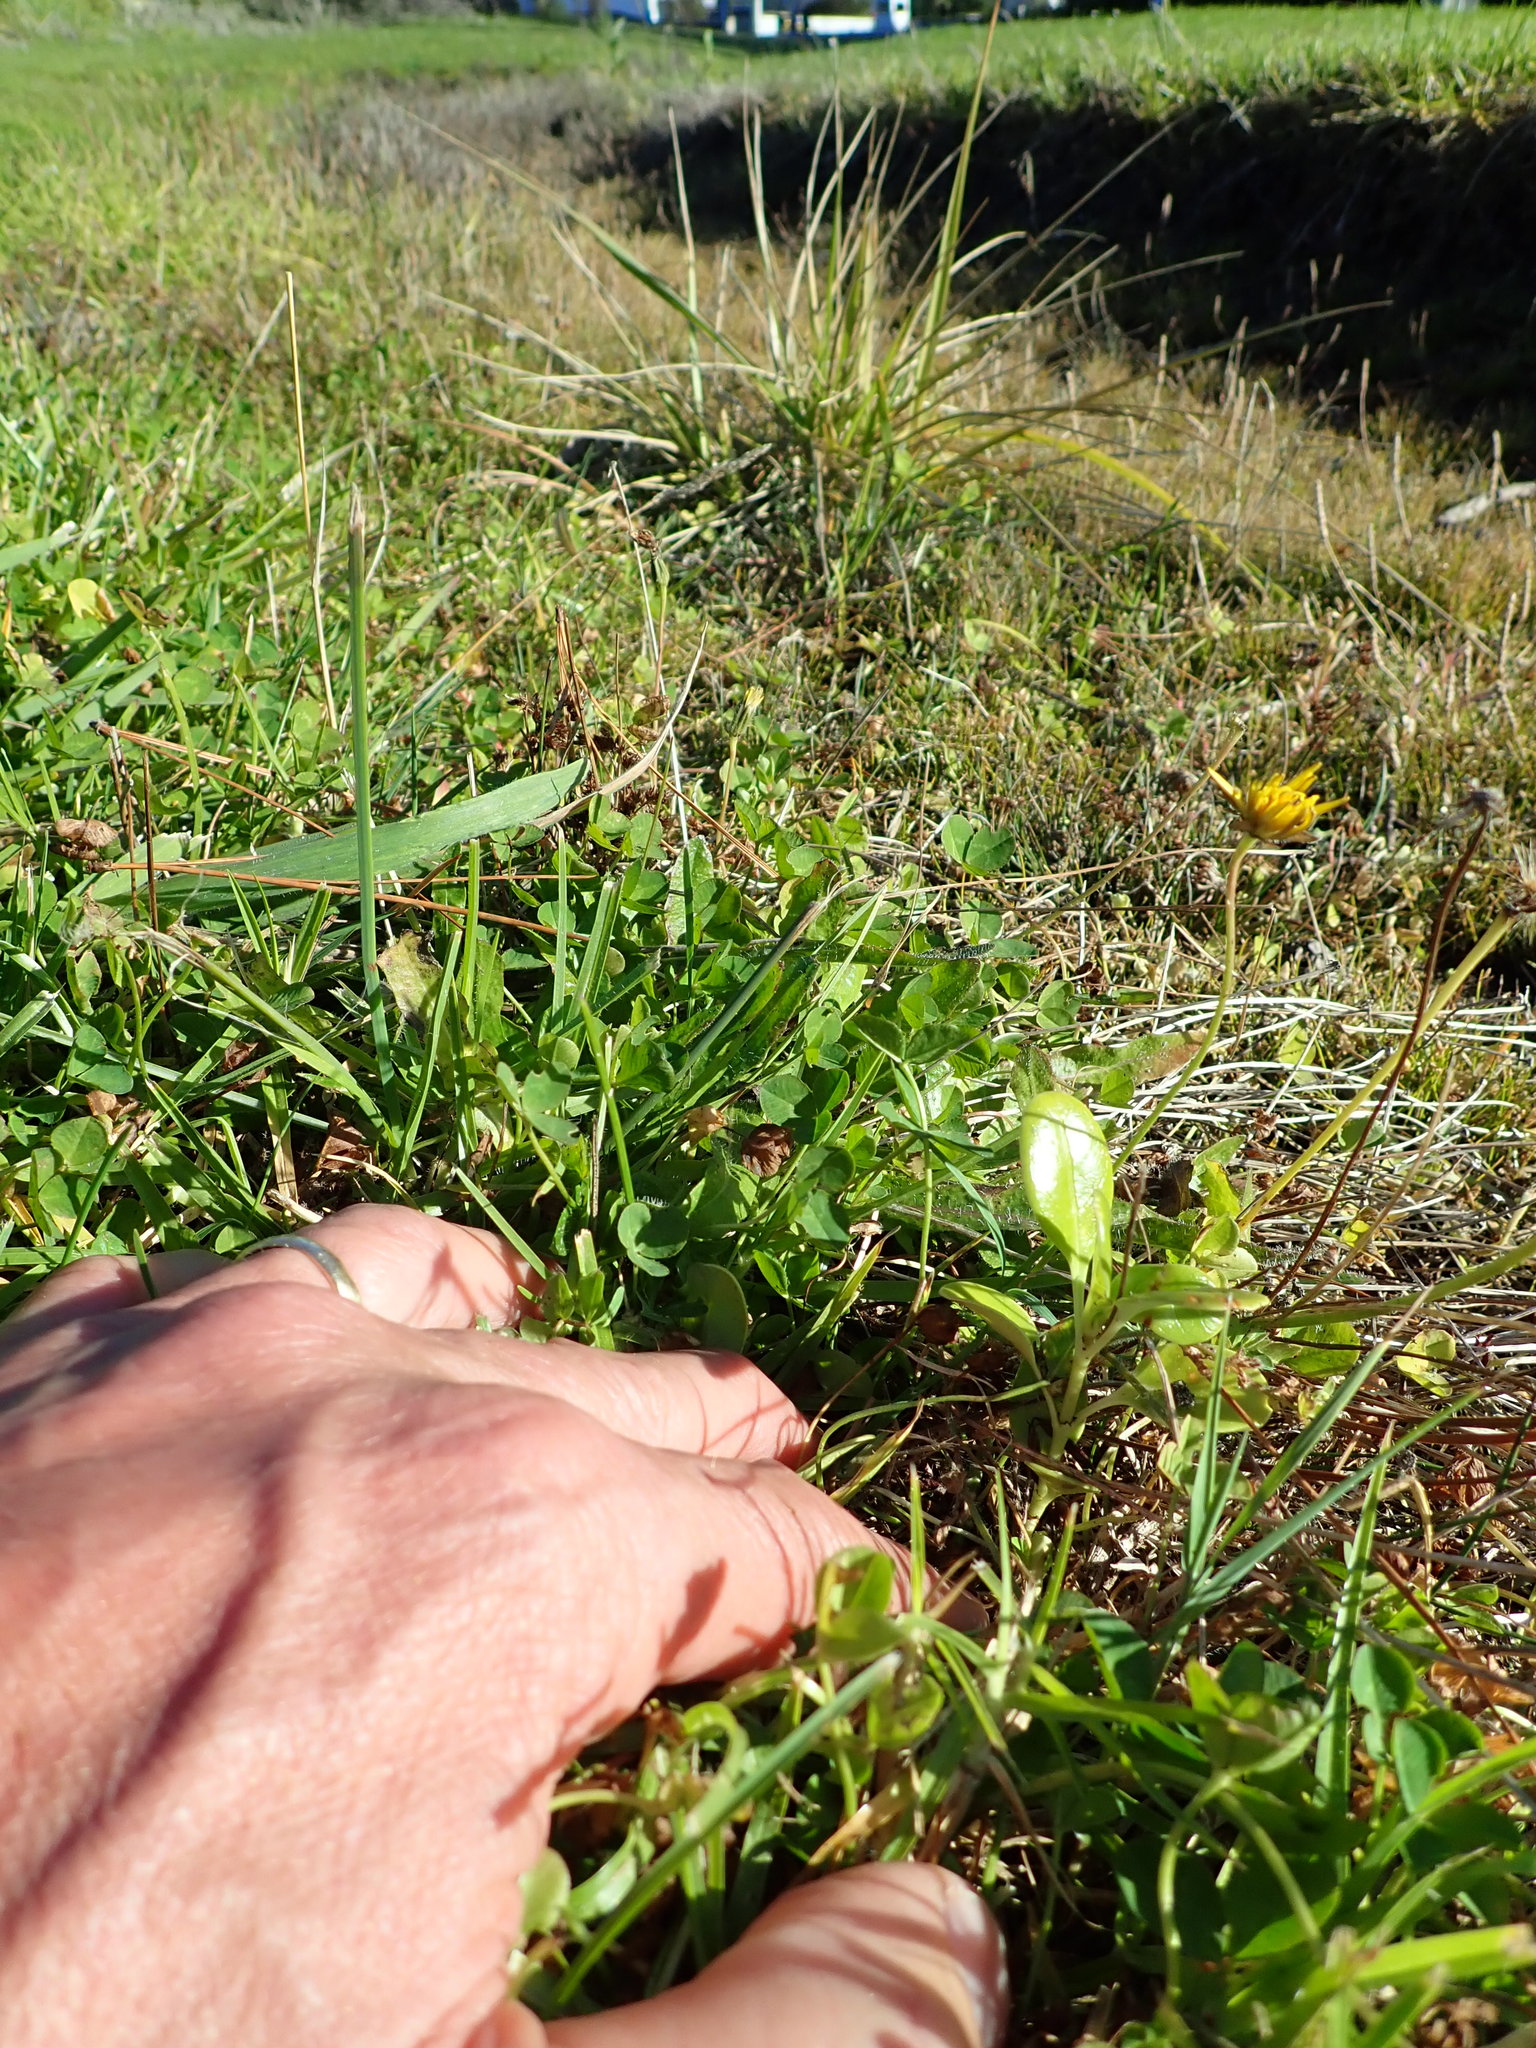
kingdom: Plantae
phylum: Tracheophyta
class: Magnoliopsida
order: Gentianales
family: Rubiaceae
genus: Coprosma
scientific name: Coprosma repens
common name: Tree bedstraw
